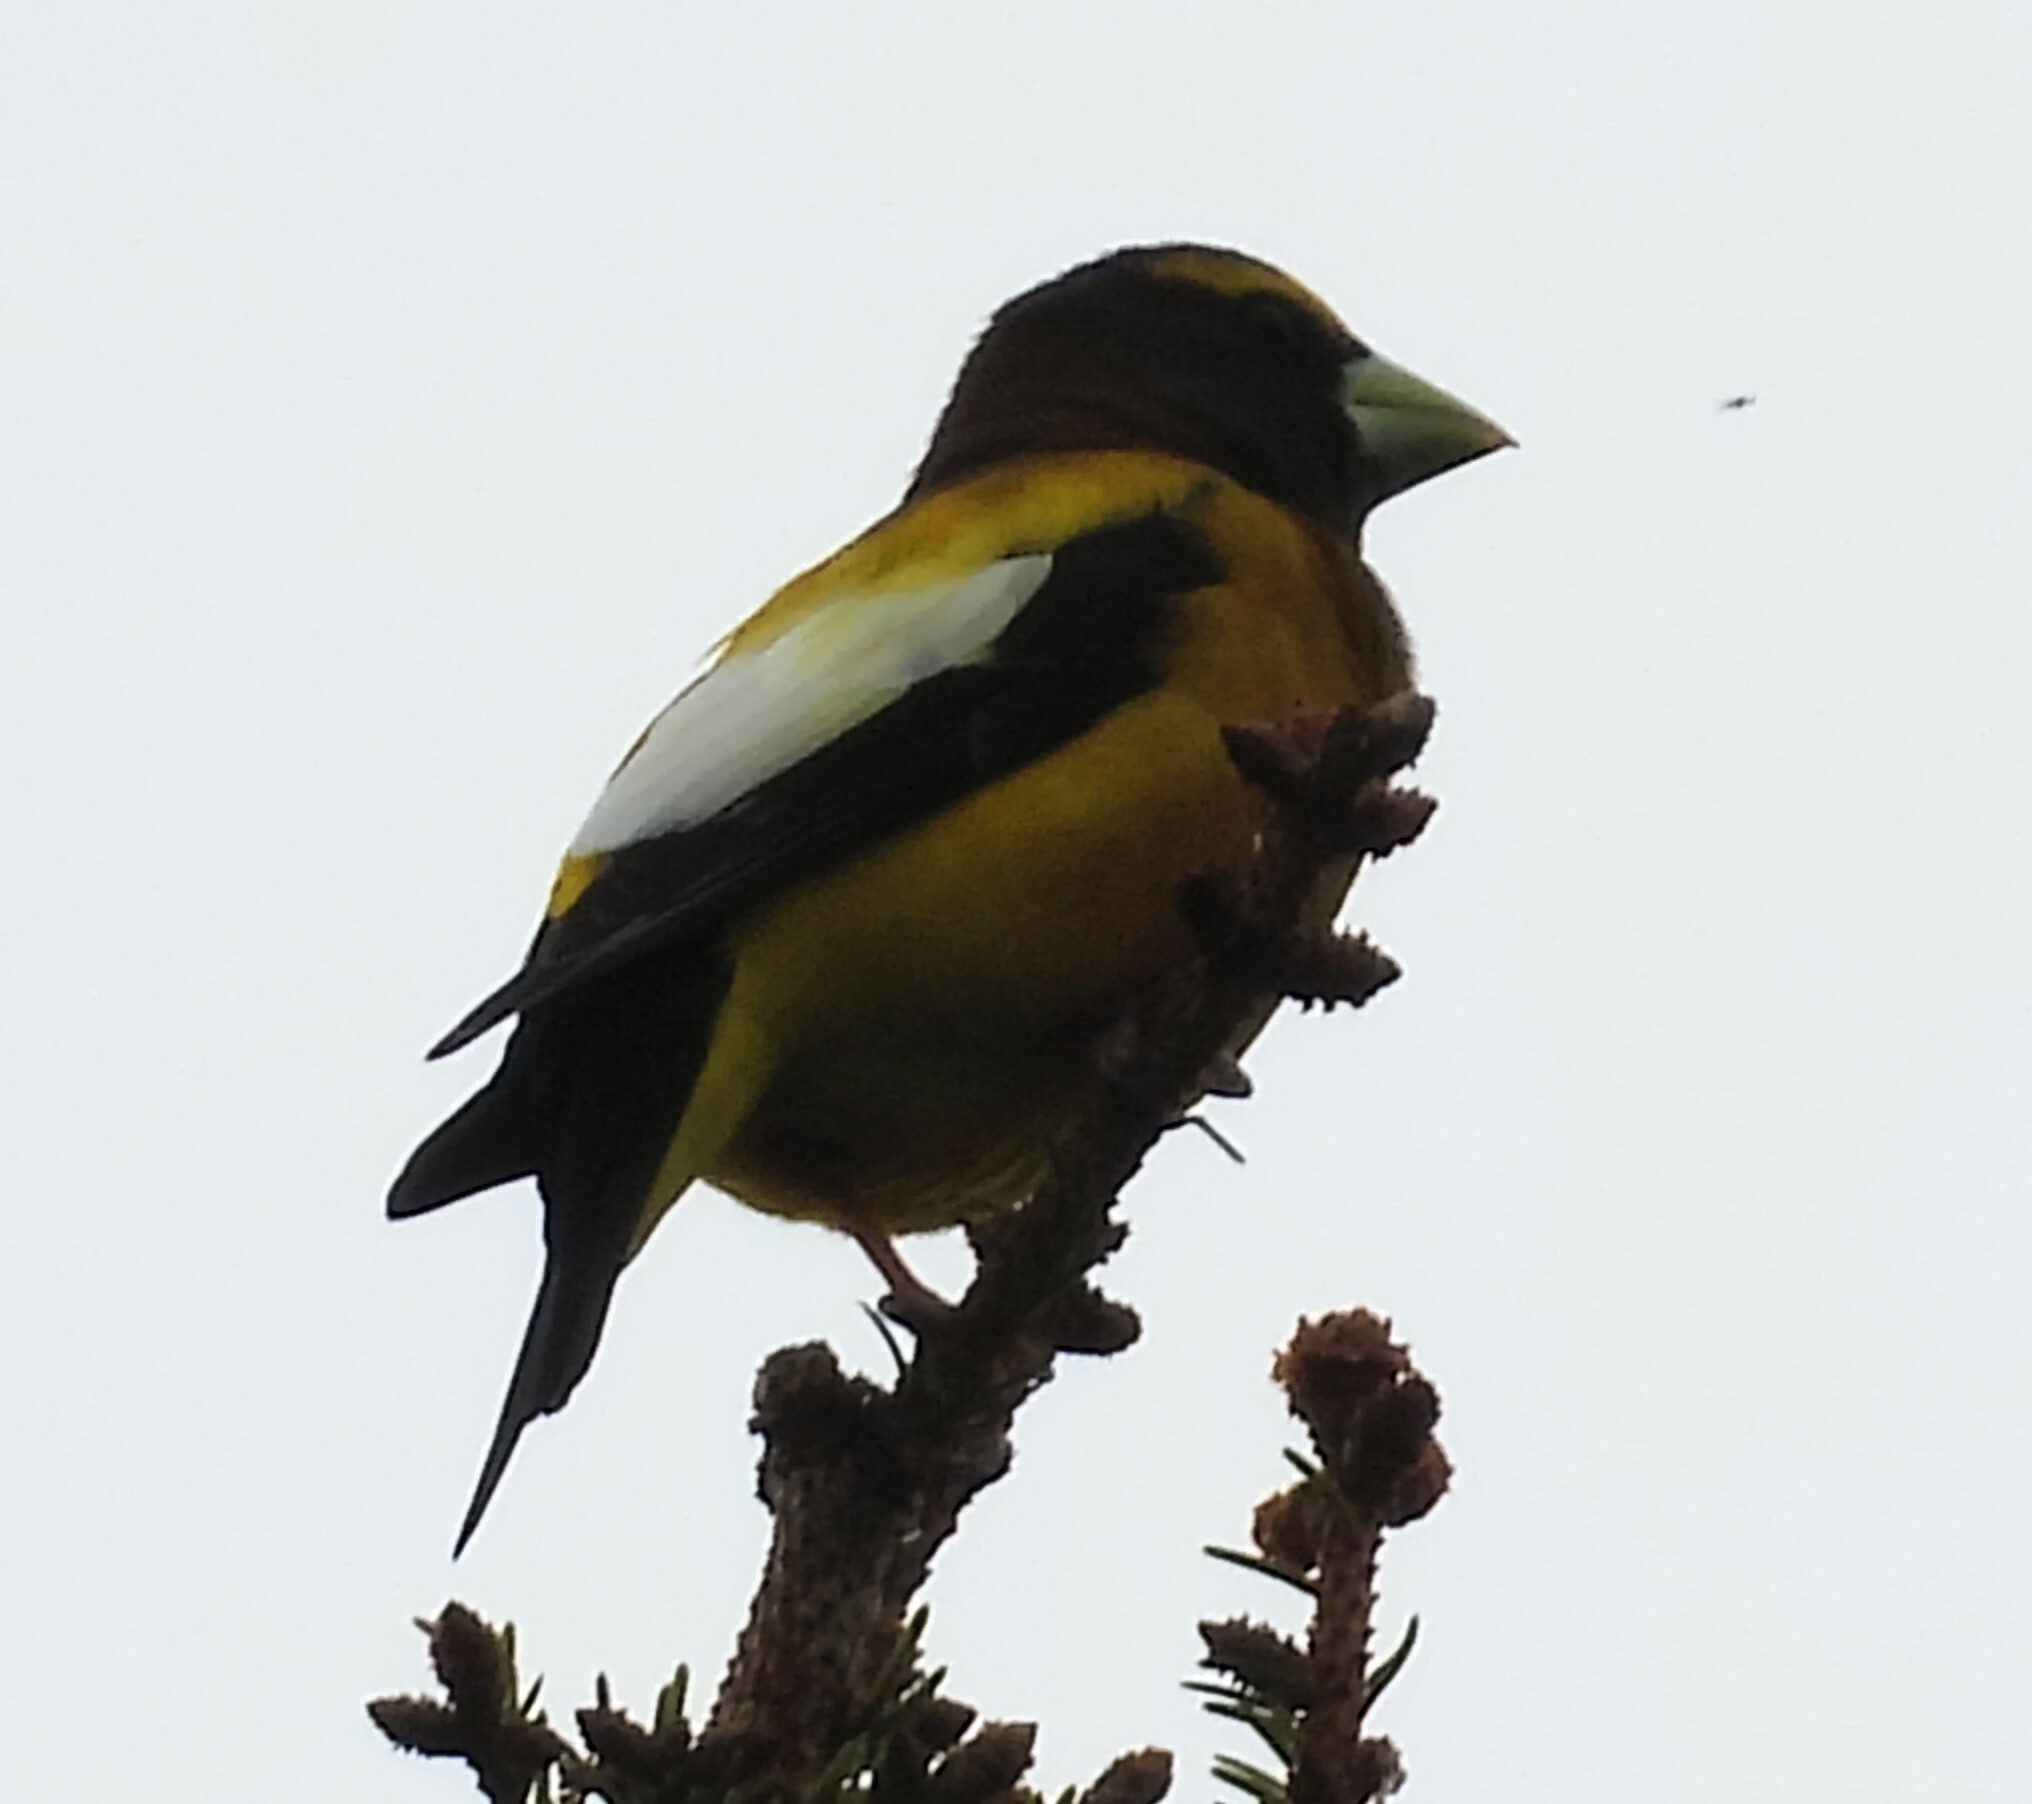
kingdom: Animalia
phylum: Chordata
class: Aves
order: Passeriformes
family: Fringillidae
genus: Hesperiphona
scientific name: Hesperiphona vespertina
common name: Evening grosbeak
